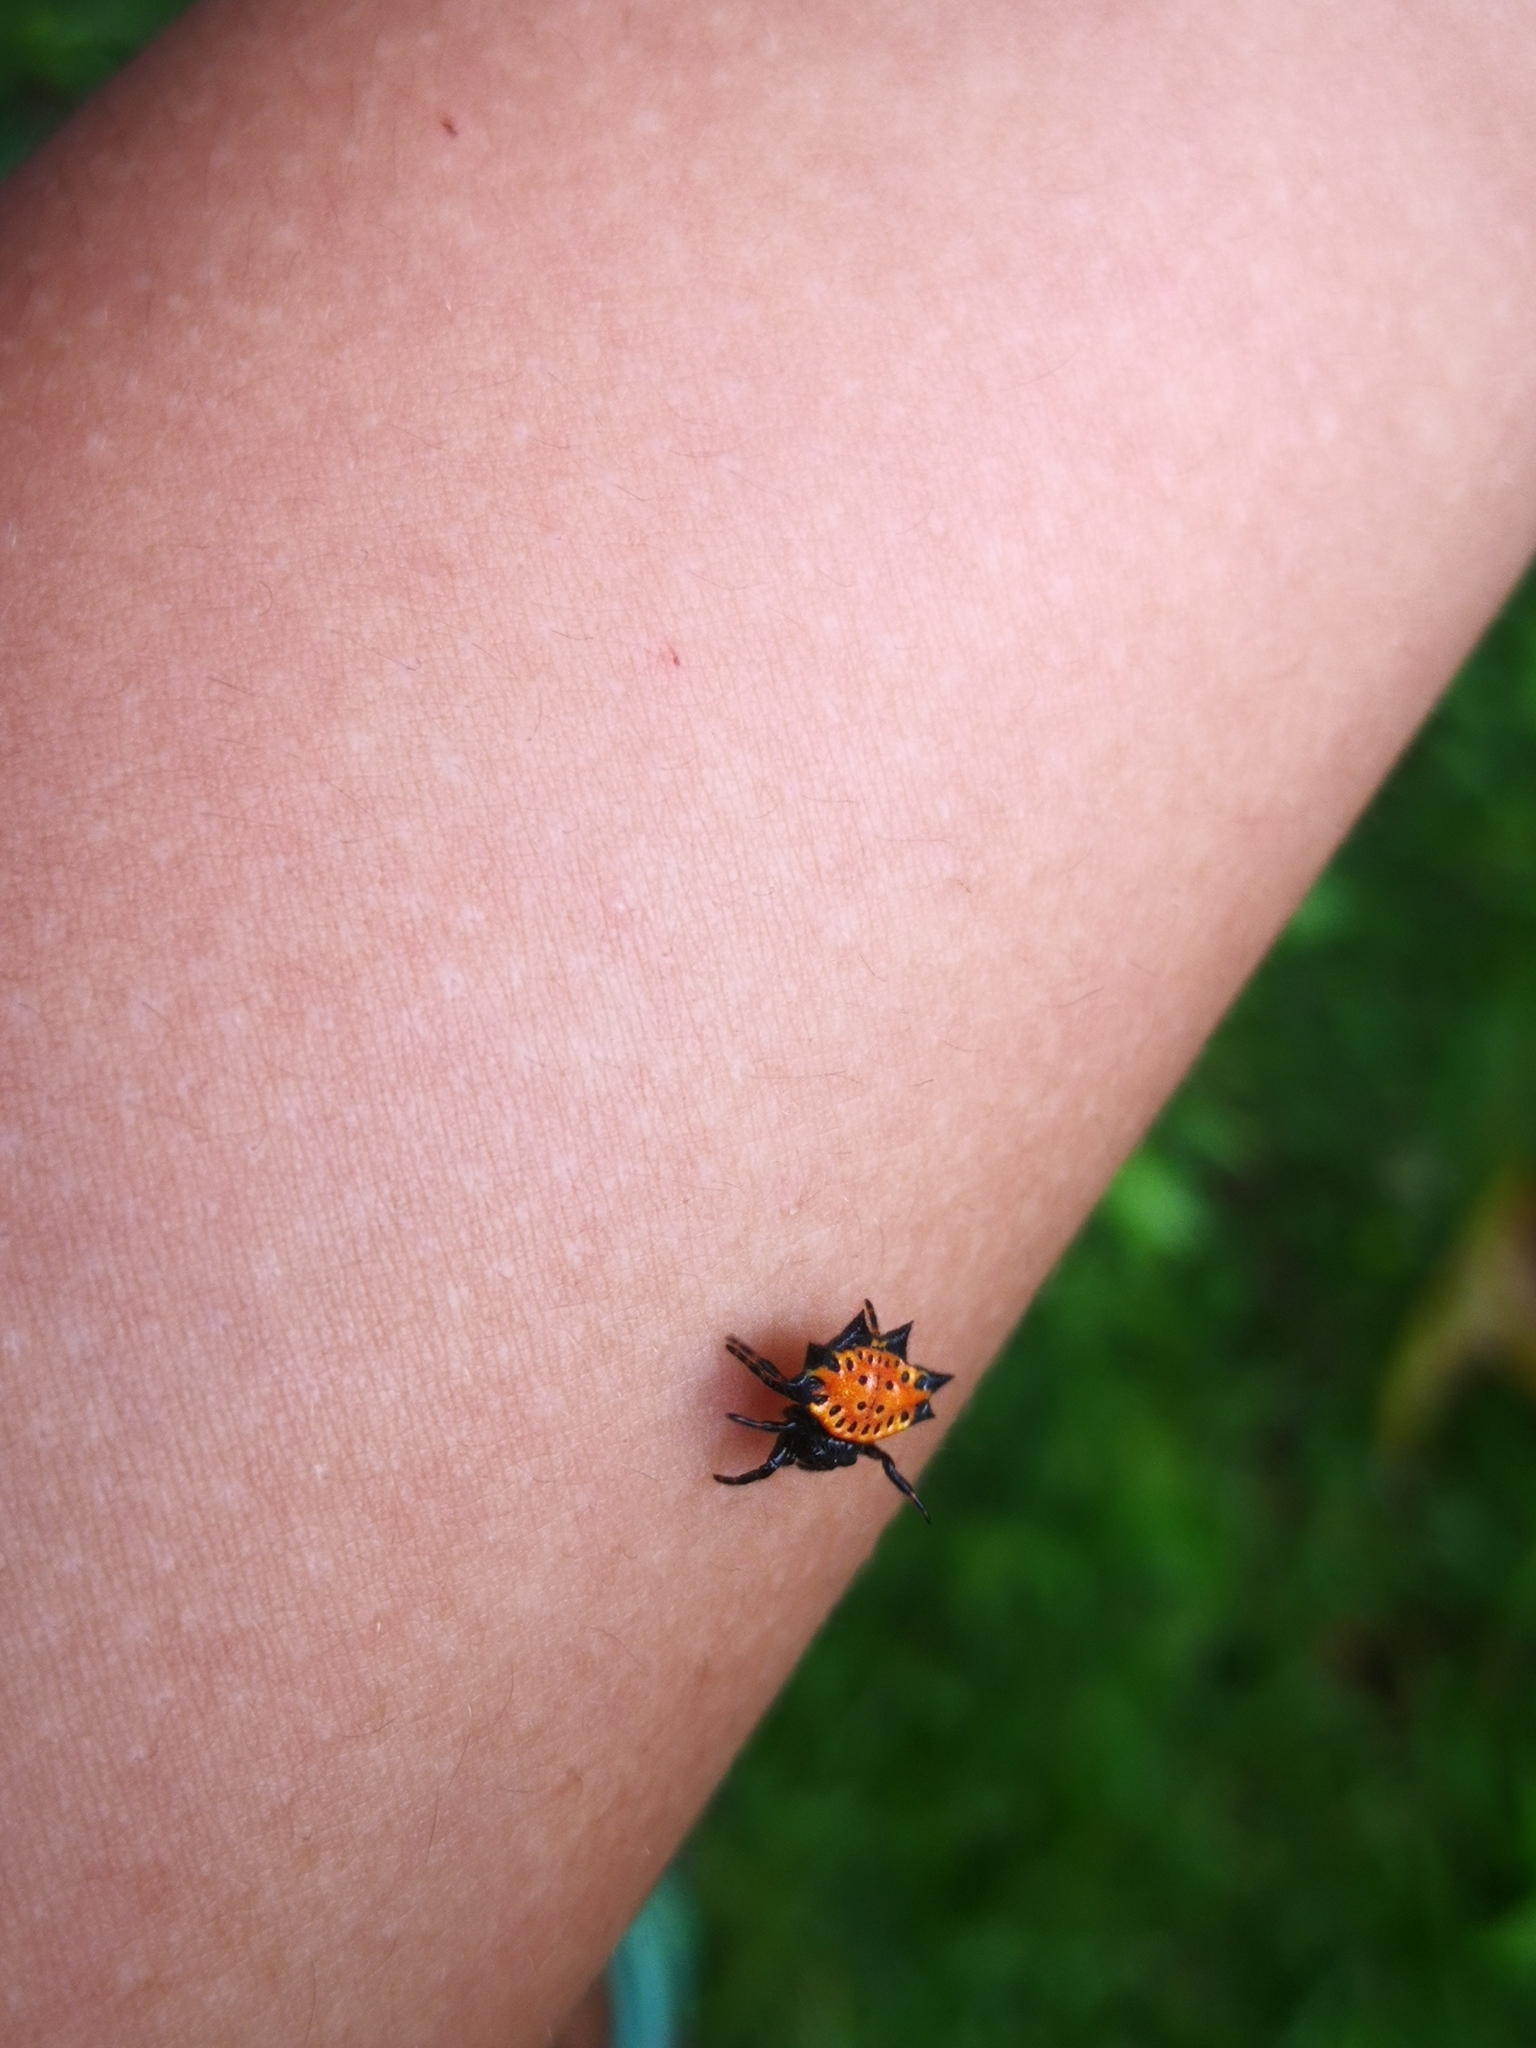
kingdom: Animalia
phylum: Arthropoda
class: Arachnida
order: Araneae
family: Araneidae
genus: Gasteracantha
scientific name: Gasteracantha cancriformis
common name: Orb weavers
